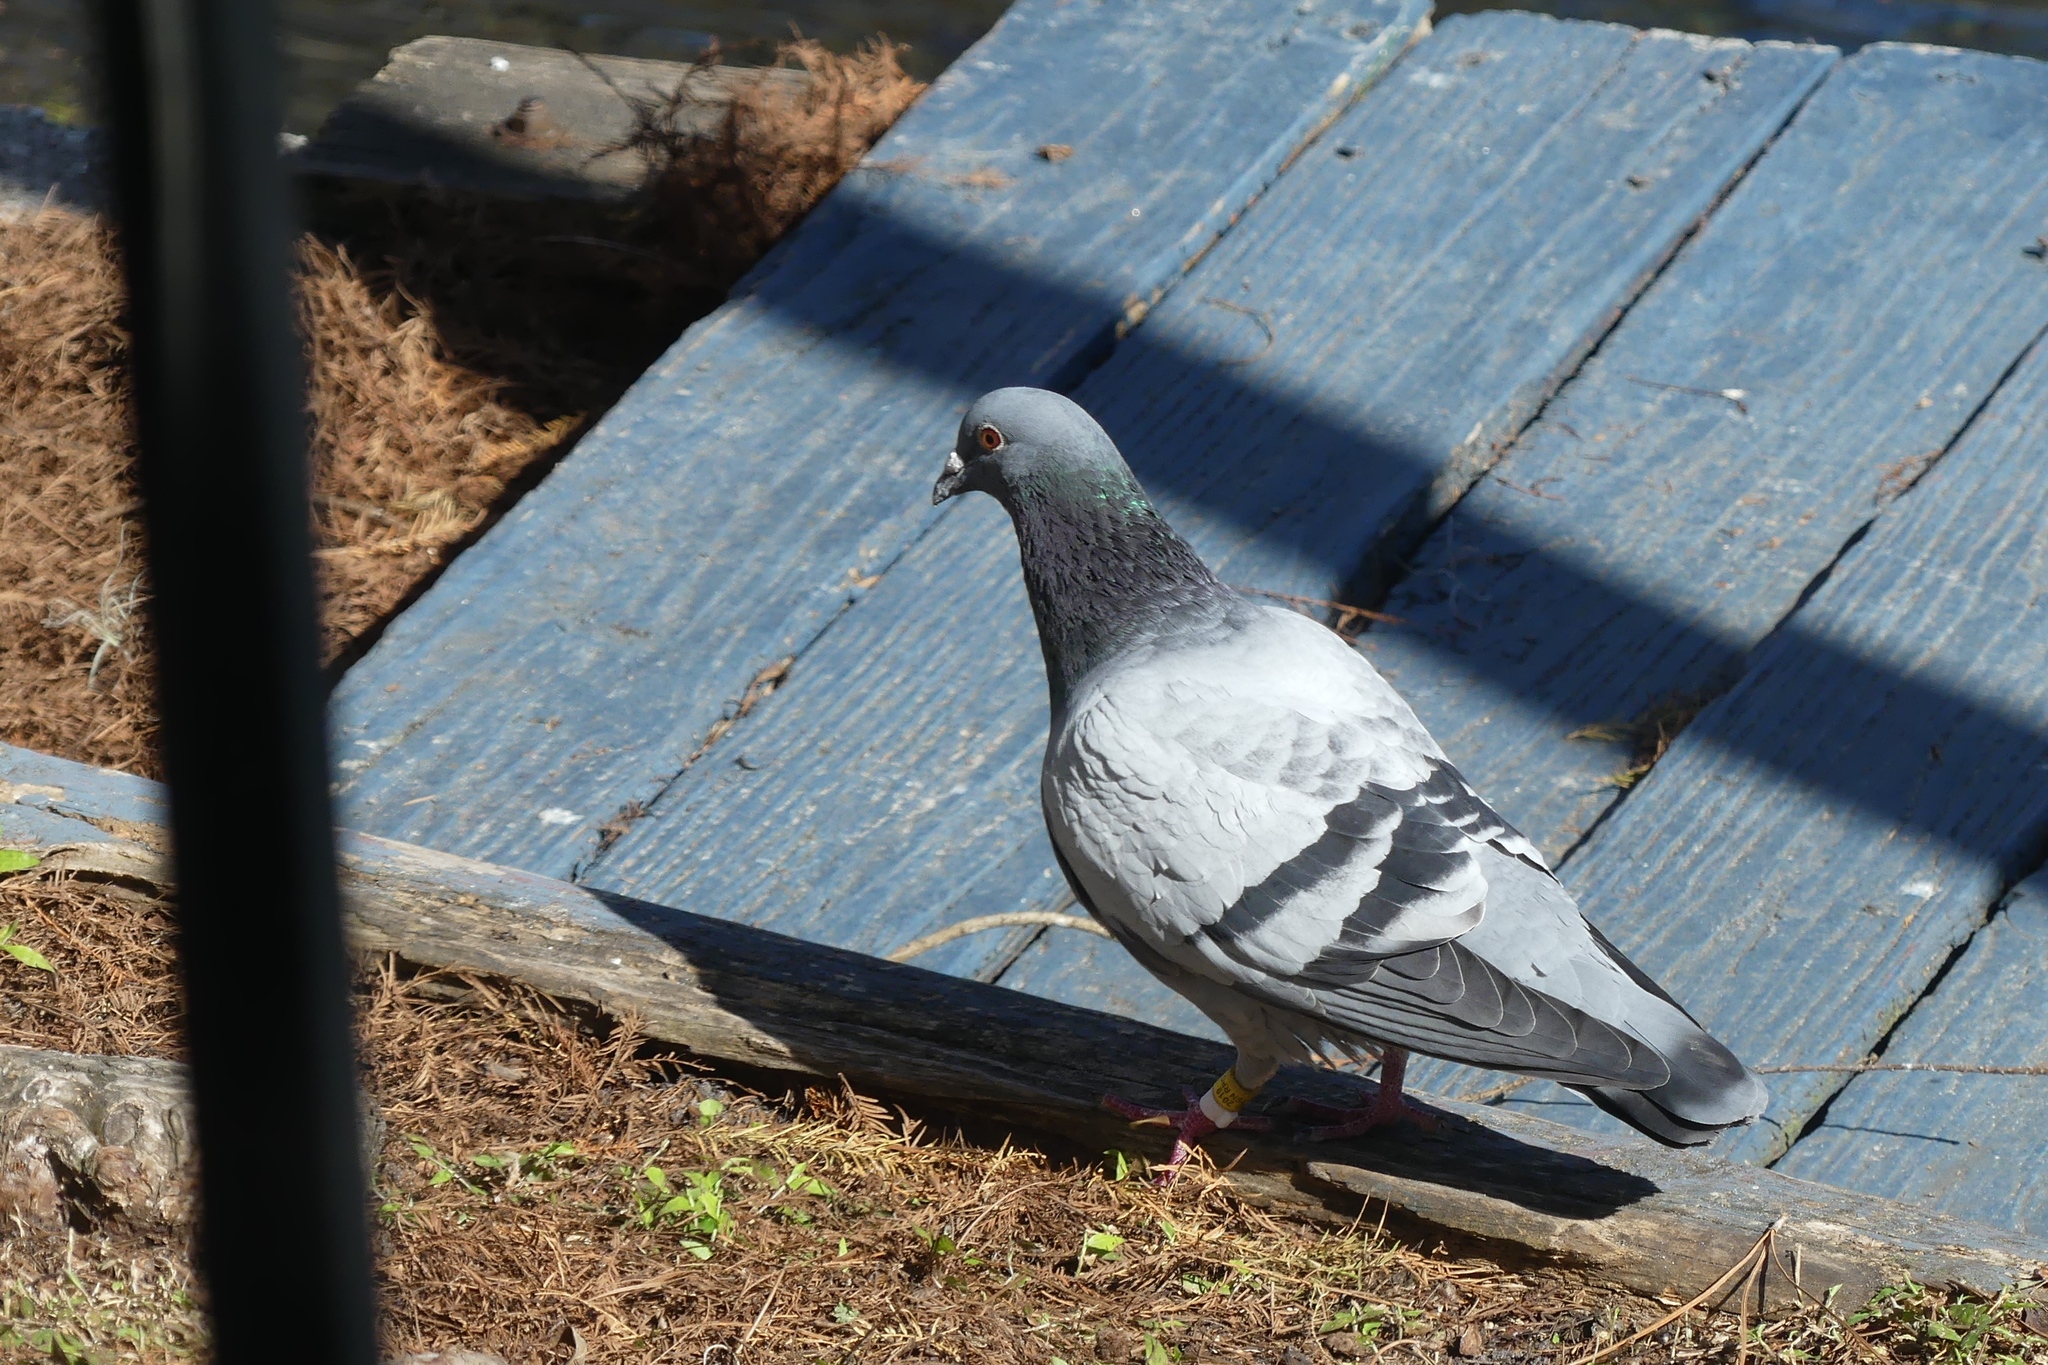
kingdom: Animalia
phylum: Chordata
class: Aves
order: Columbiformes
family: Columbidae
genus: Columba
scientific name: Columba livia
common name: Rock pigeon
